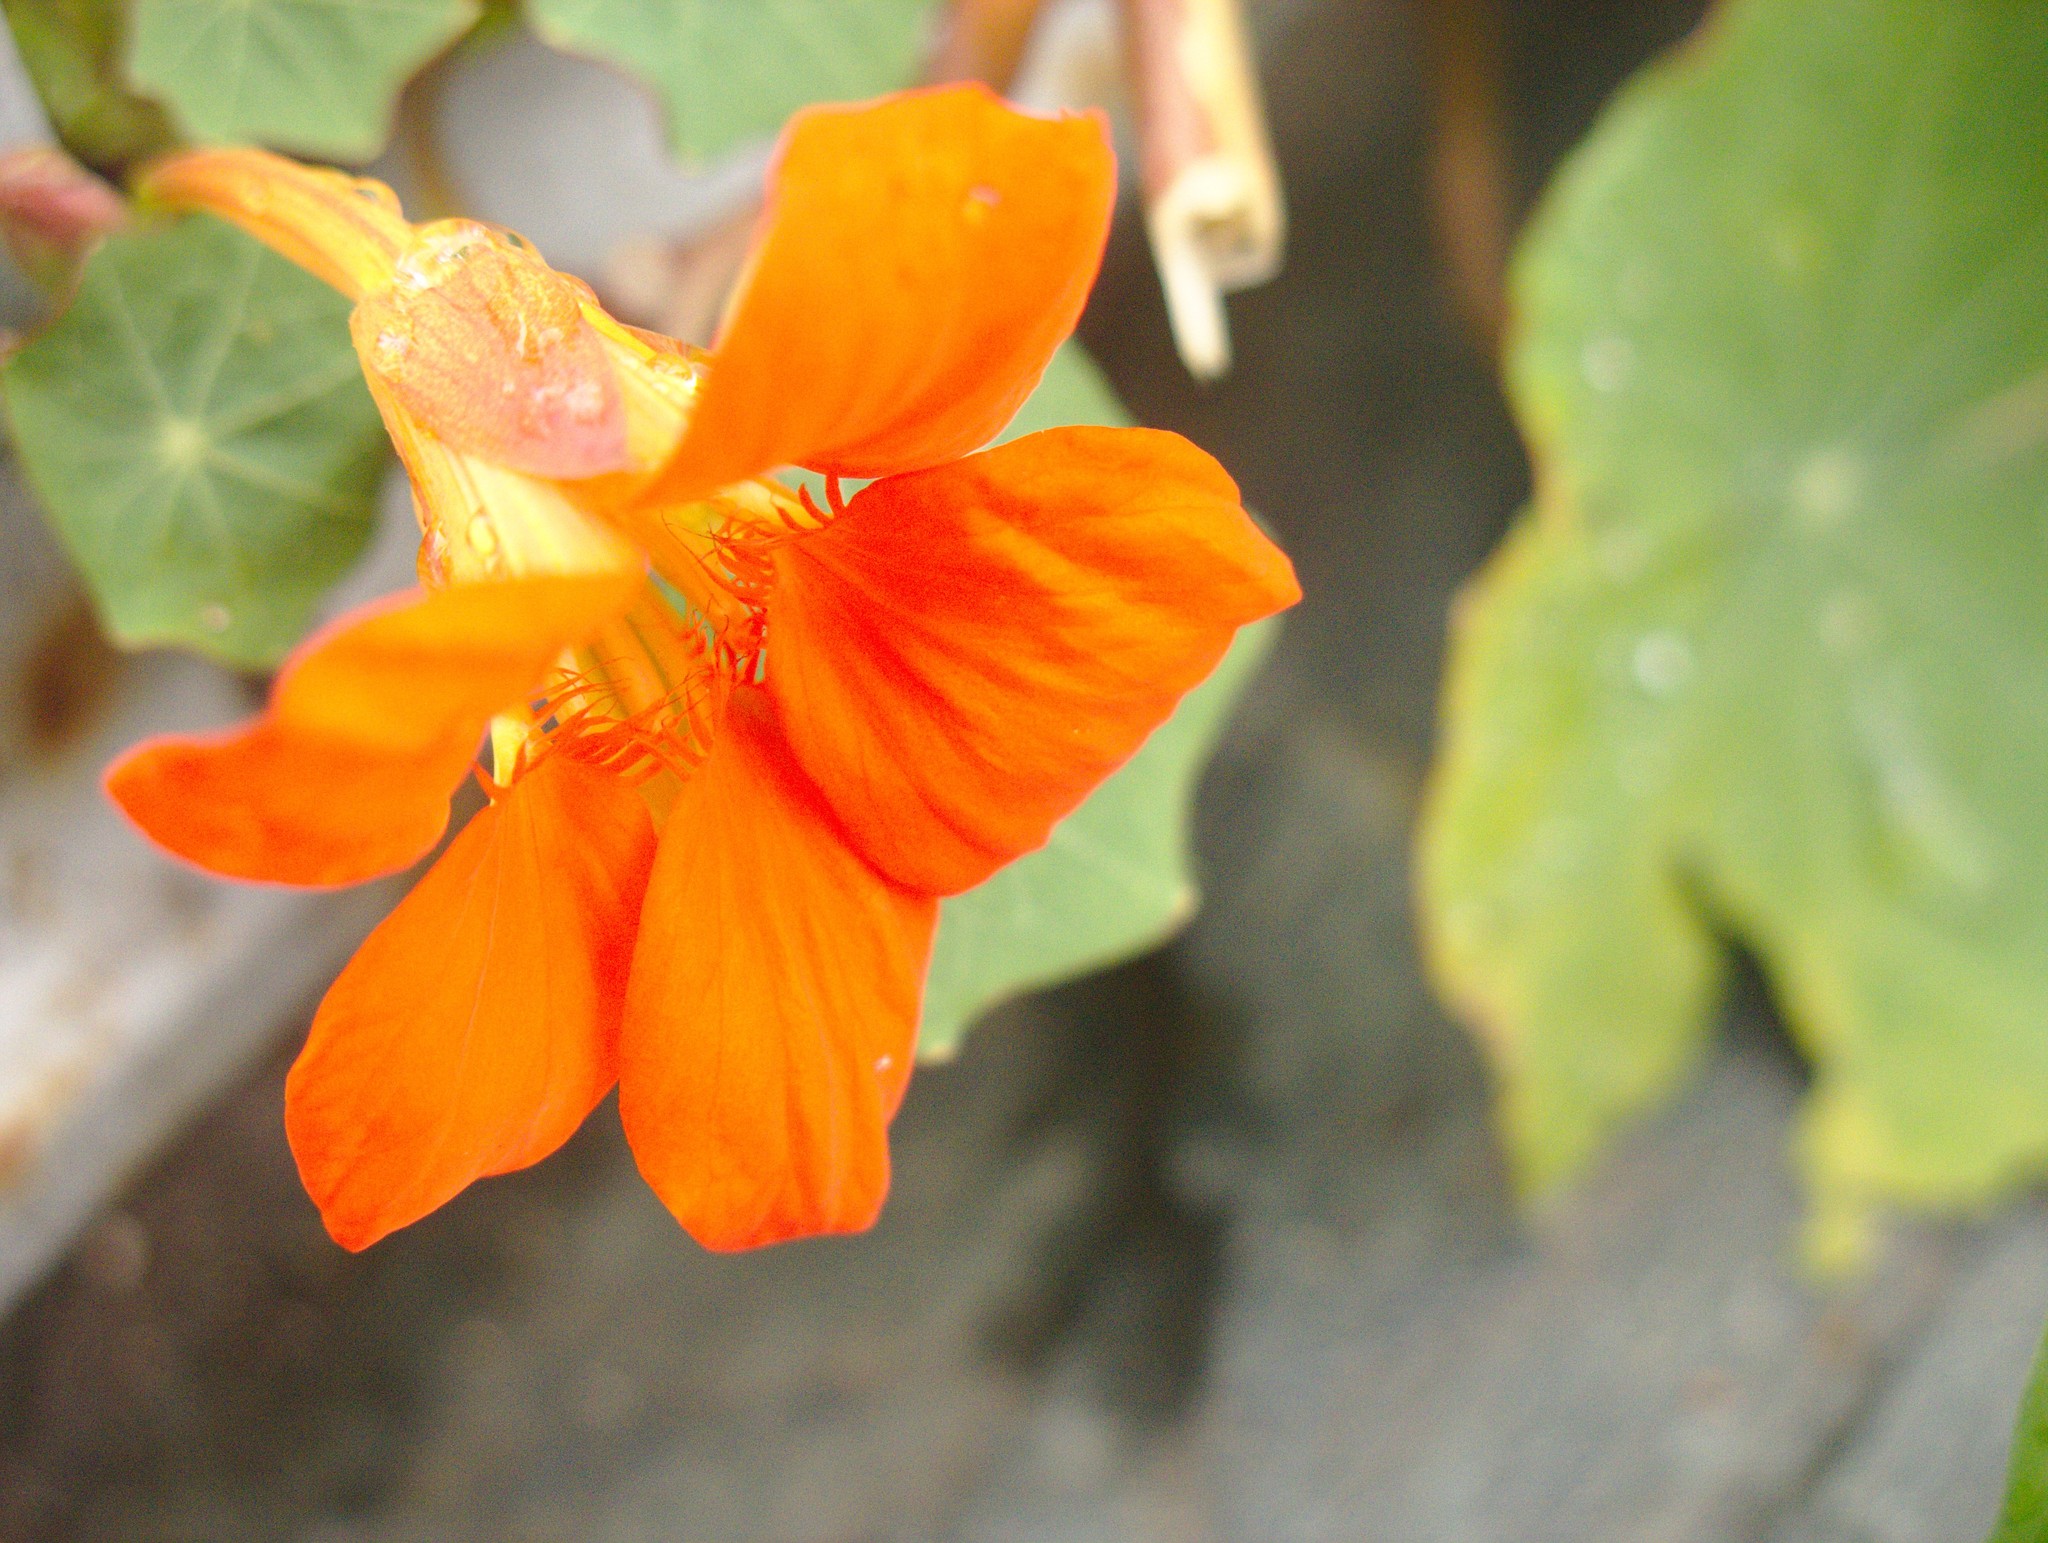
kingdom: Plantae
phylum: Tracheophyta
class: Magnoliopsida
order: Brassicales
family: Tropaeolaceae
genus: Tropaeolum
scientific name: Tropaeolum majus
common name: Nasturtium
